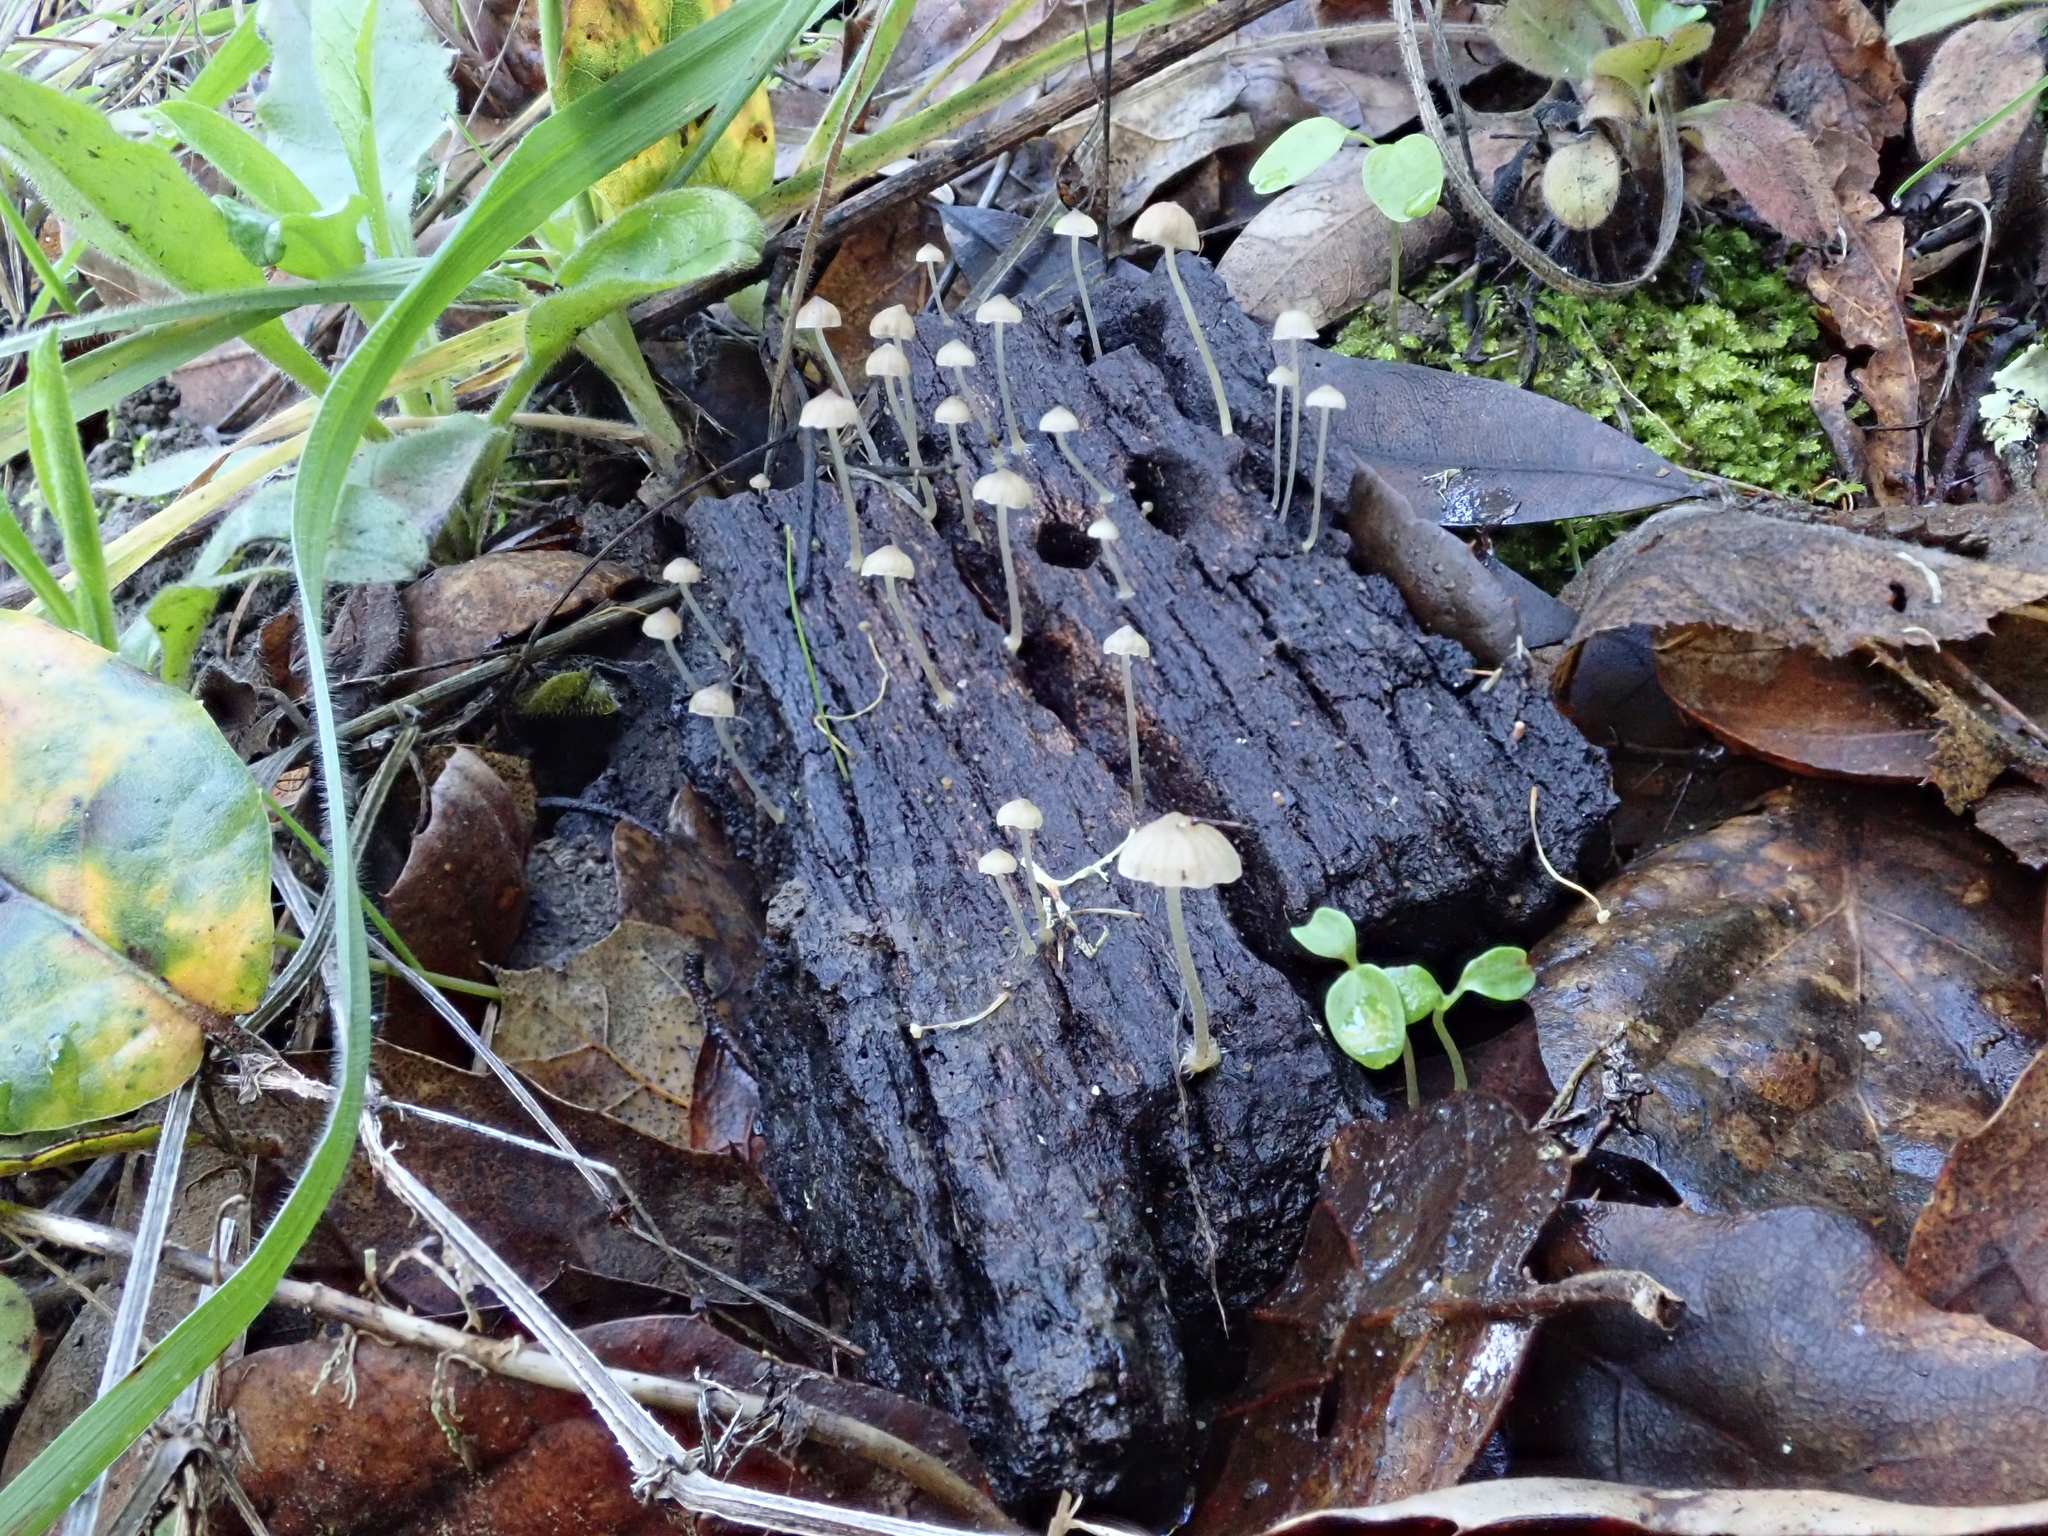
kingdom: Fungi
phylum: Basidiomycota
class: Agaricomycetes
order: Agaricales
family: Porotheleaceae
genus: Phloeomana
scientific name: Phloeomana speirea
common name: Bark bonnet
